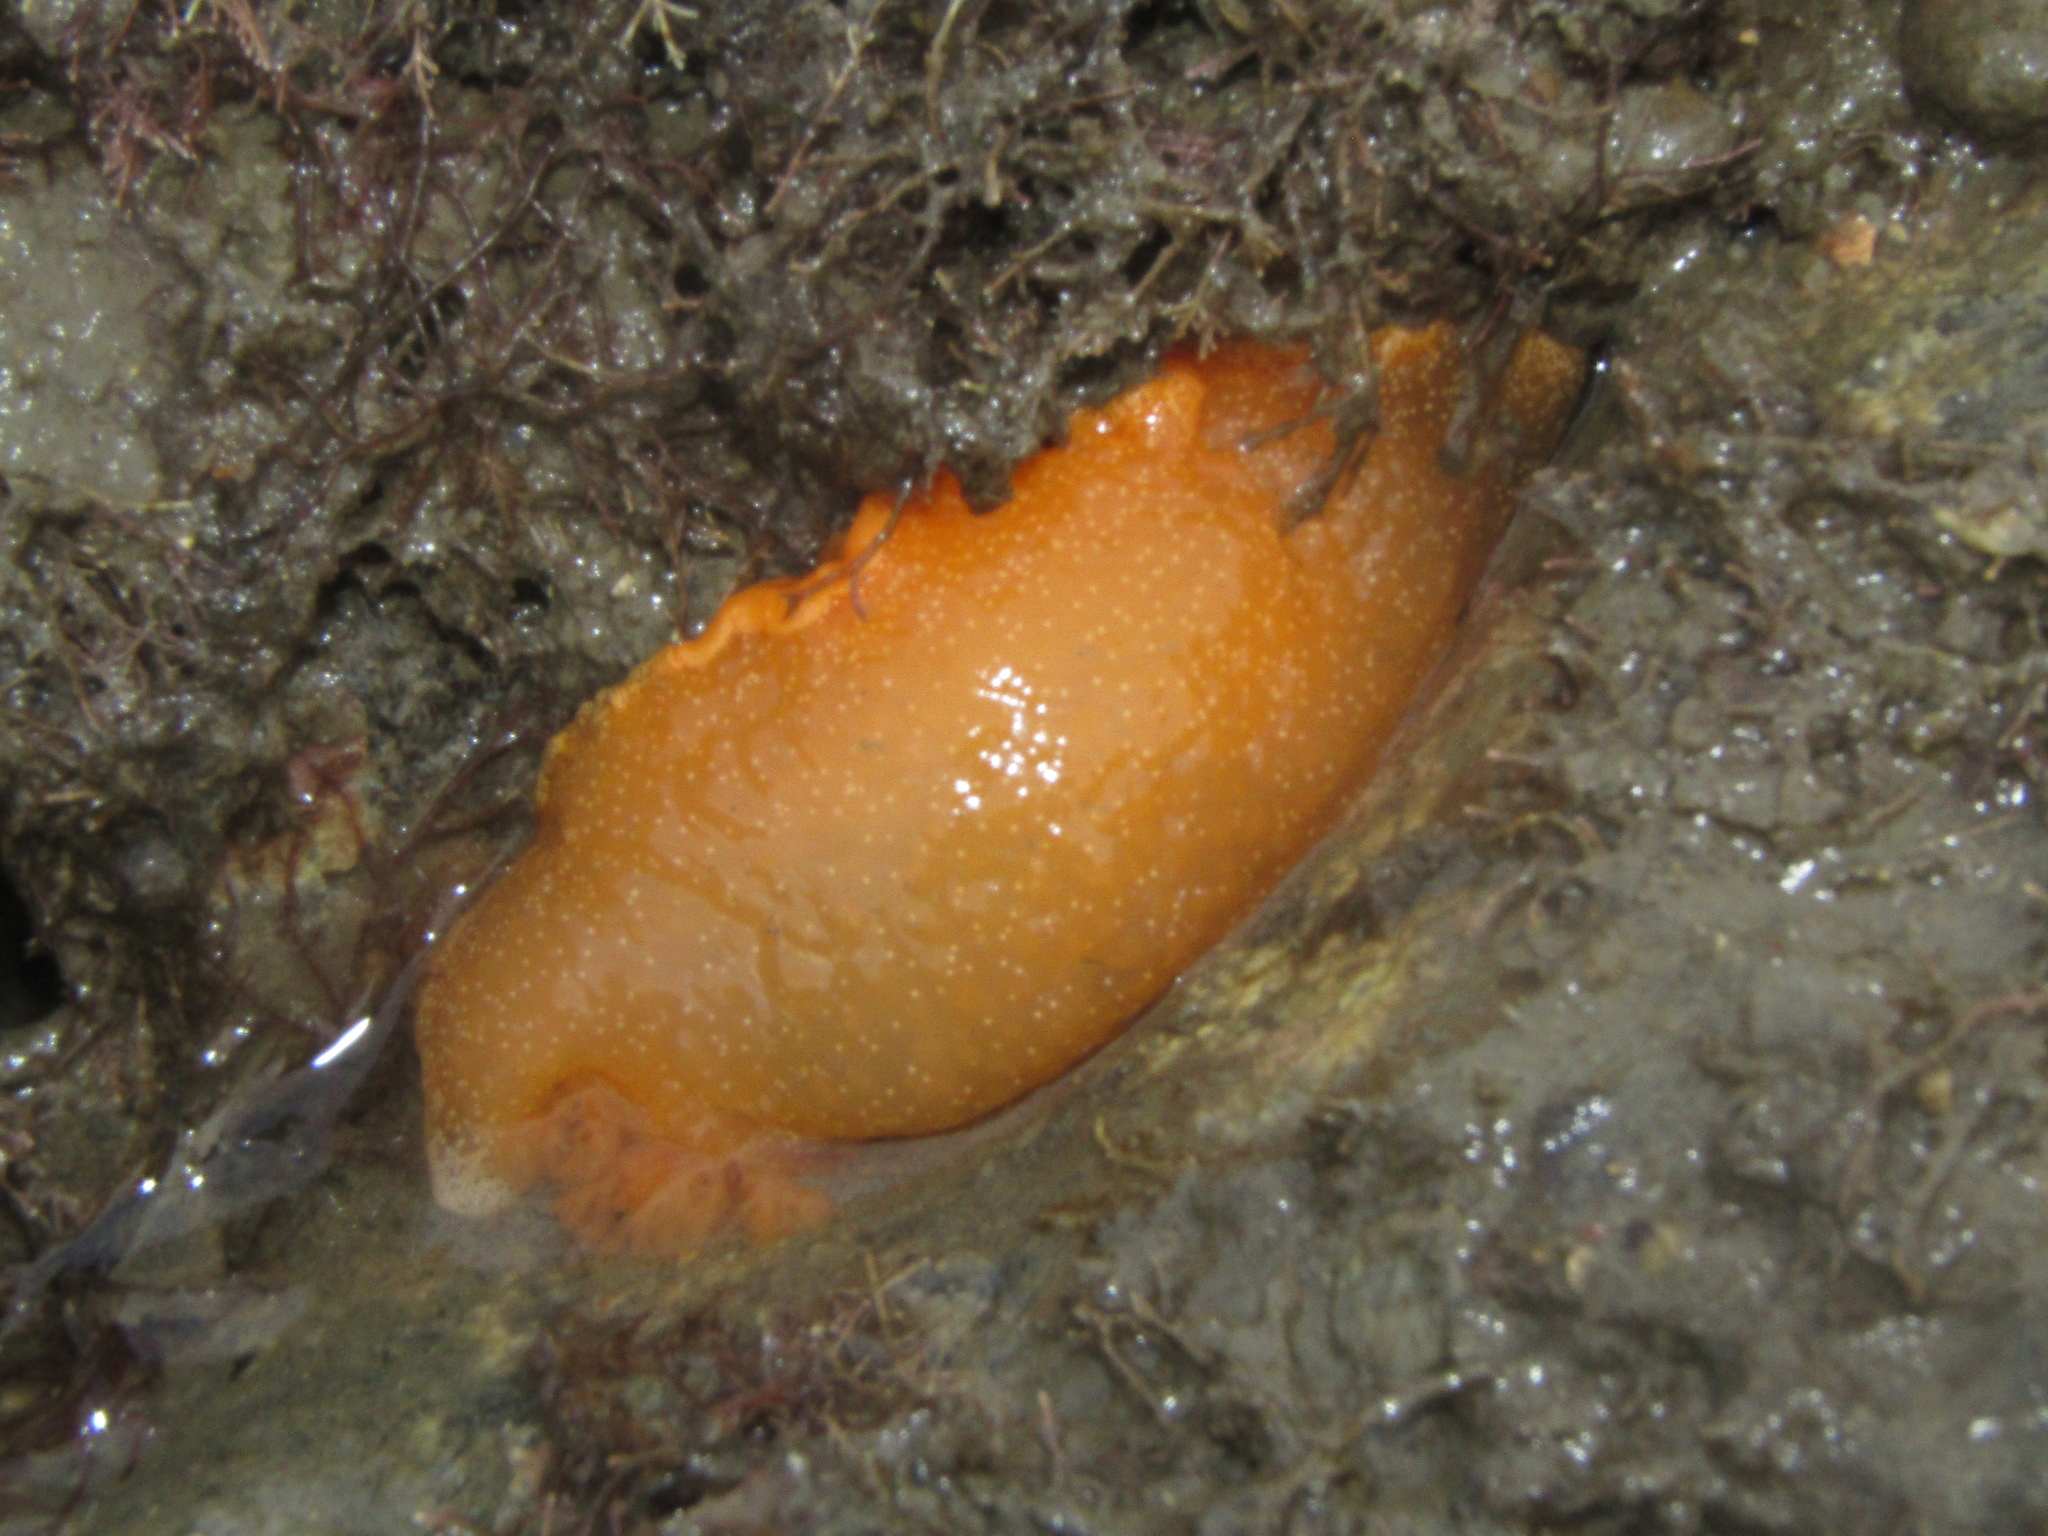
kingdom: Animalia
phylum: Mollusca
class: Gastropoda
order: Nudibranchia
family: Dendrodorididae
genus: Dendrodoris
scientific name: Dendrodoris citrina
